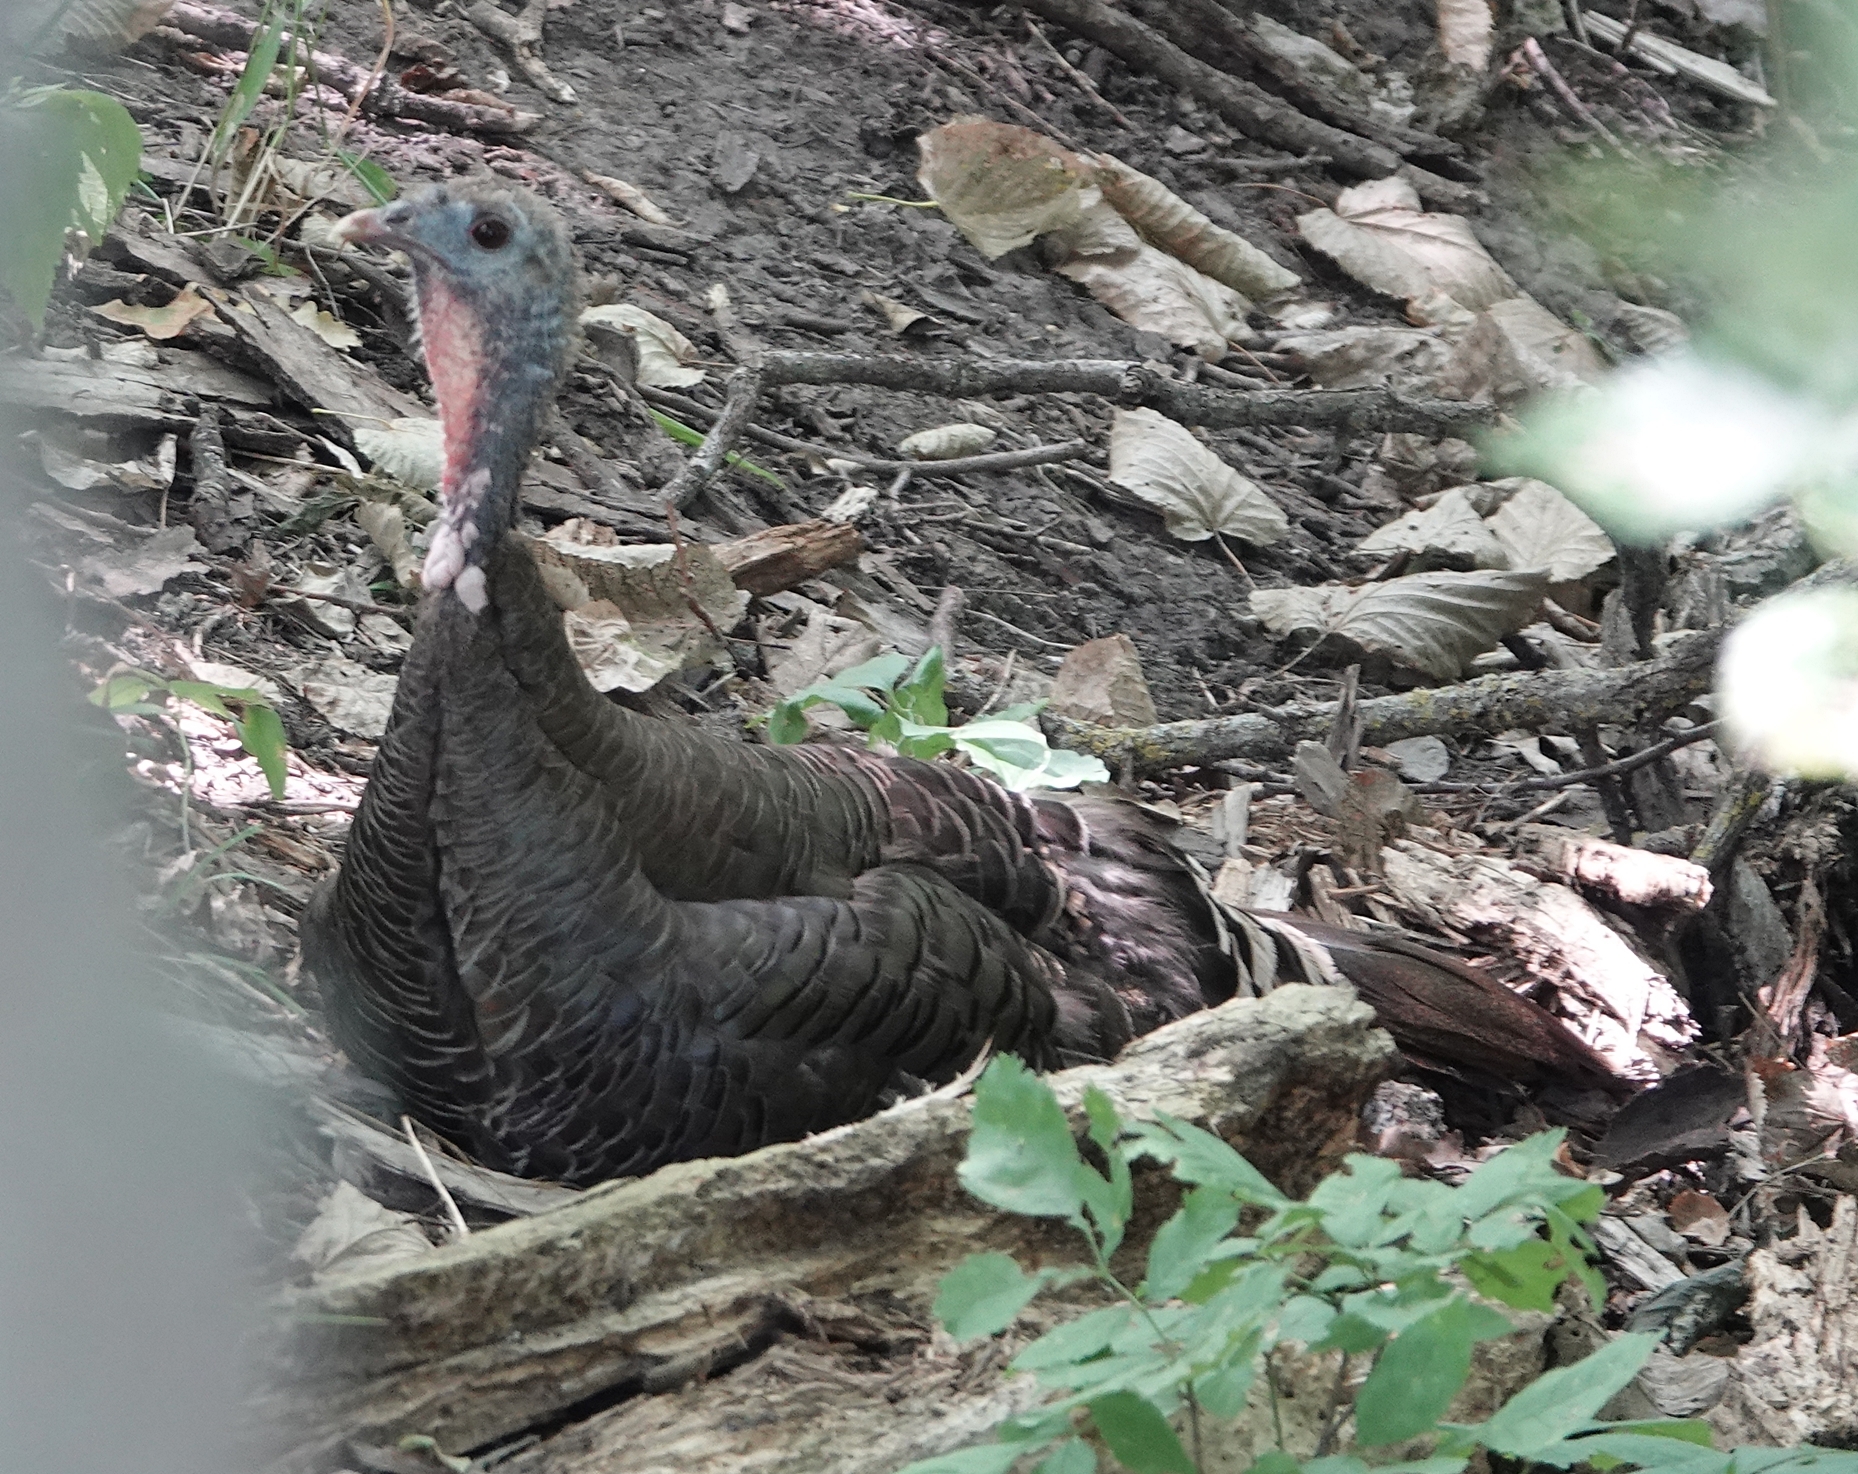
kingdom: Animalia
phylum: Chordata
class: Aves
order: Galliformes
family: Phasianidae
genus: Meleagris
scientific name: Meleagris gallopavo
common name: Wild turkey
